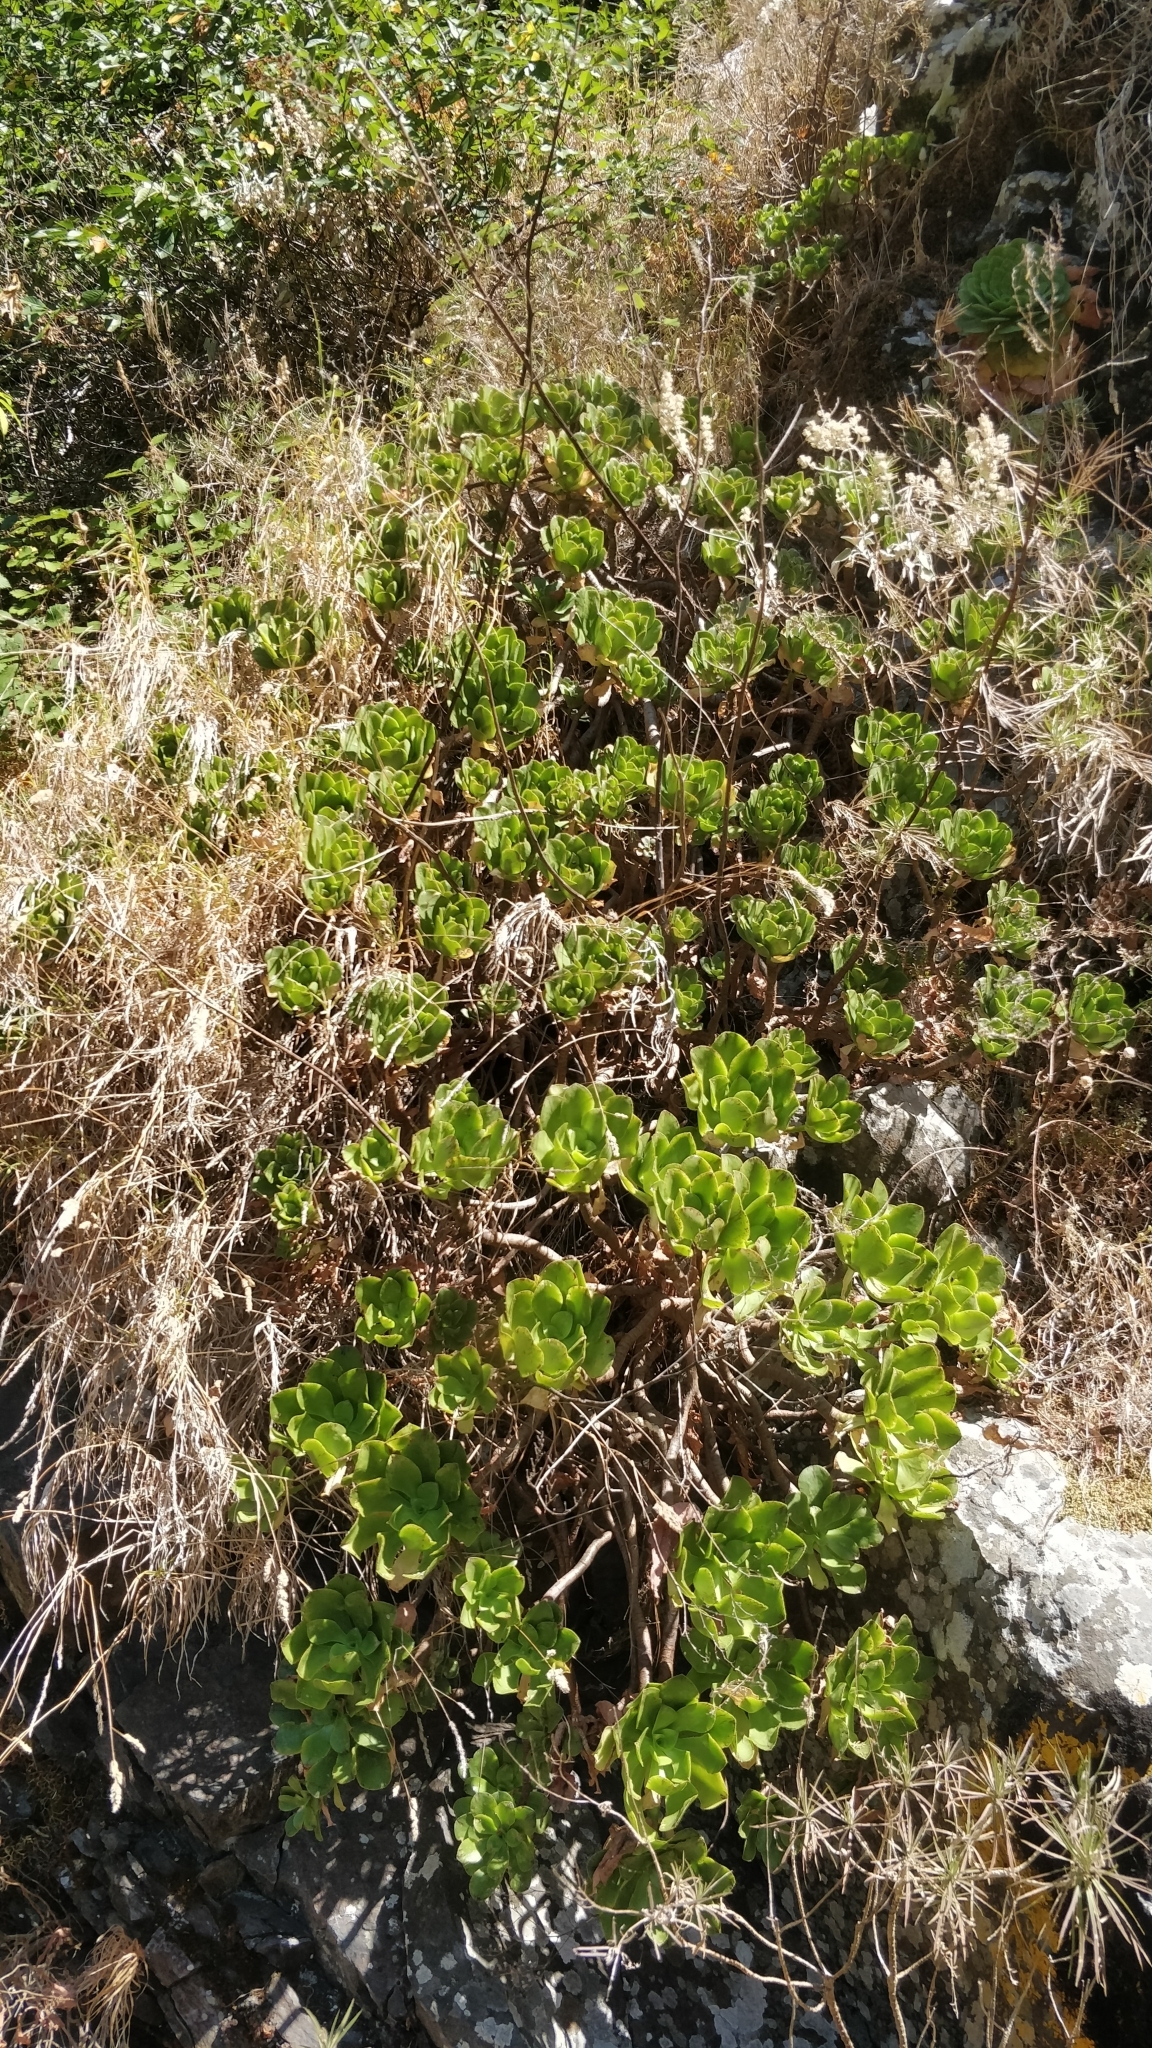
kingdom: Plantae
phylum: Tracheophyta
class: Magnoliopsida
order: Saxifragales
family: Crassulaceae
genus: Aeonium
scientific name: Aeonium glutinosum
